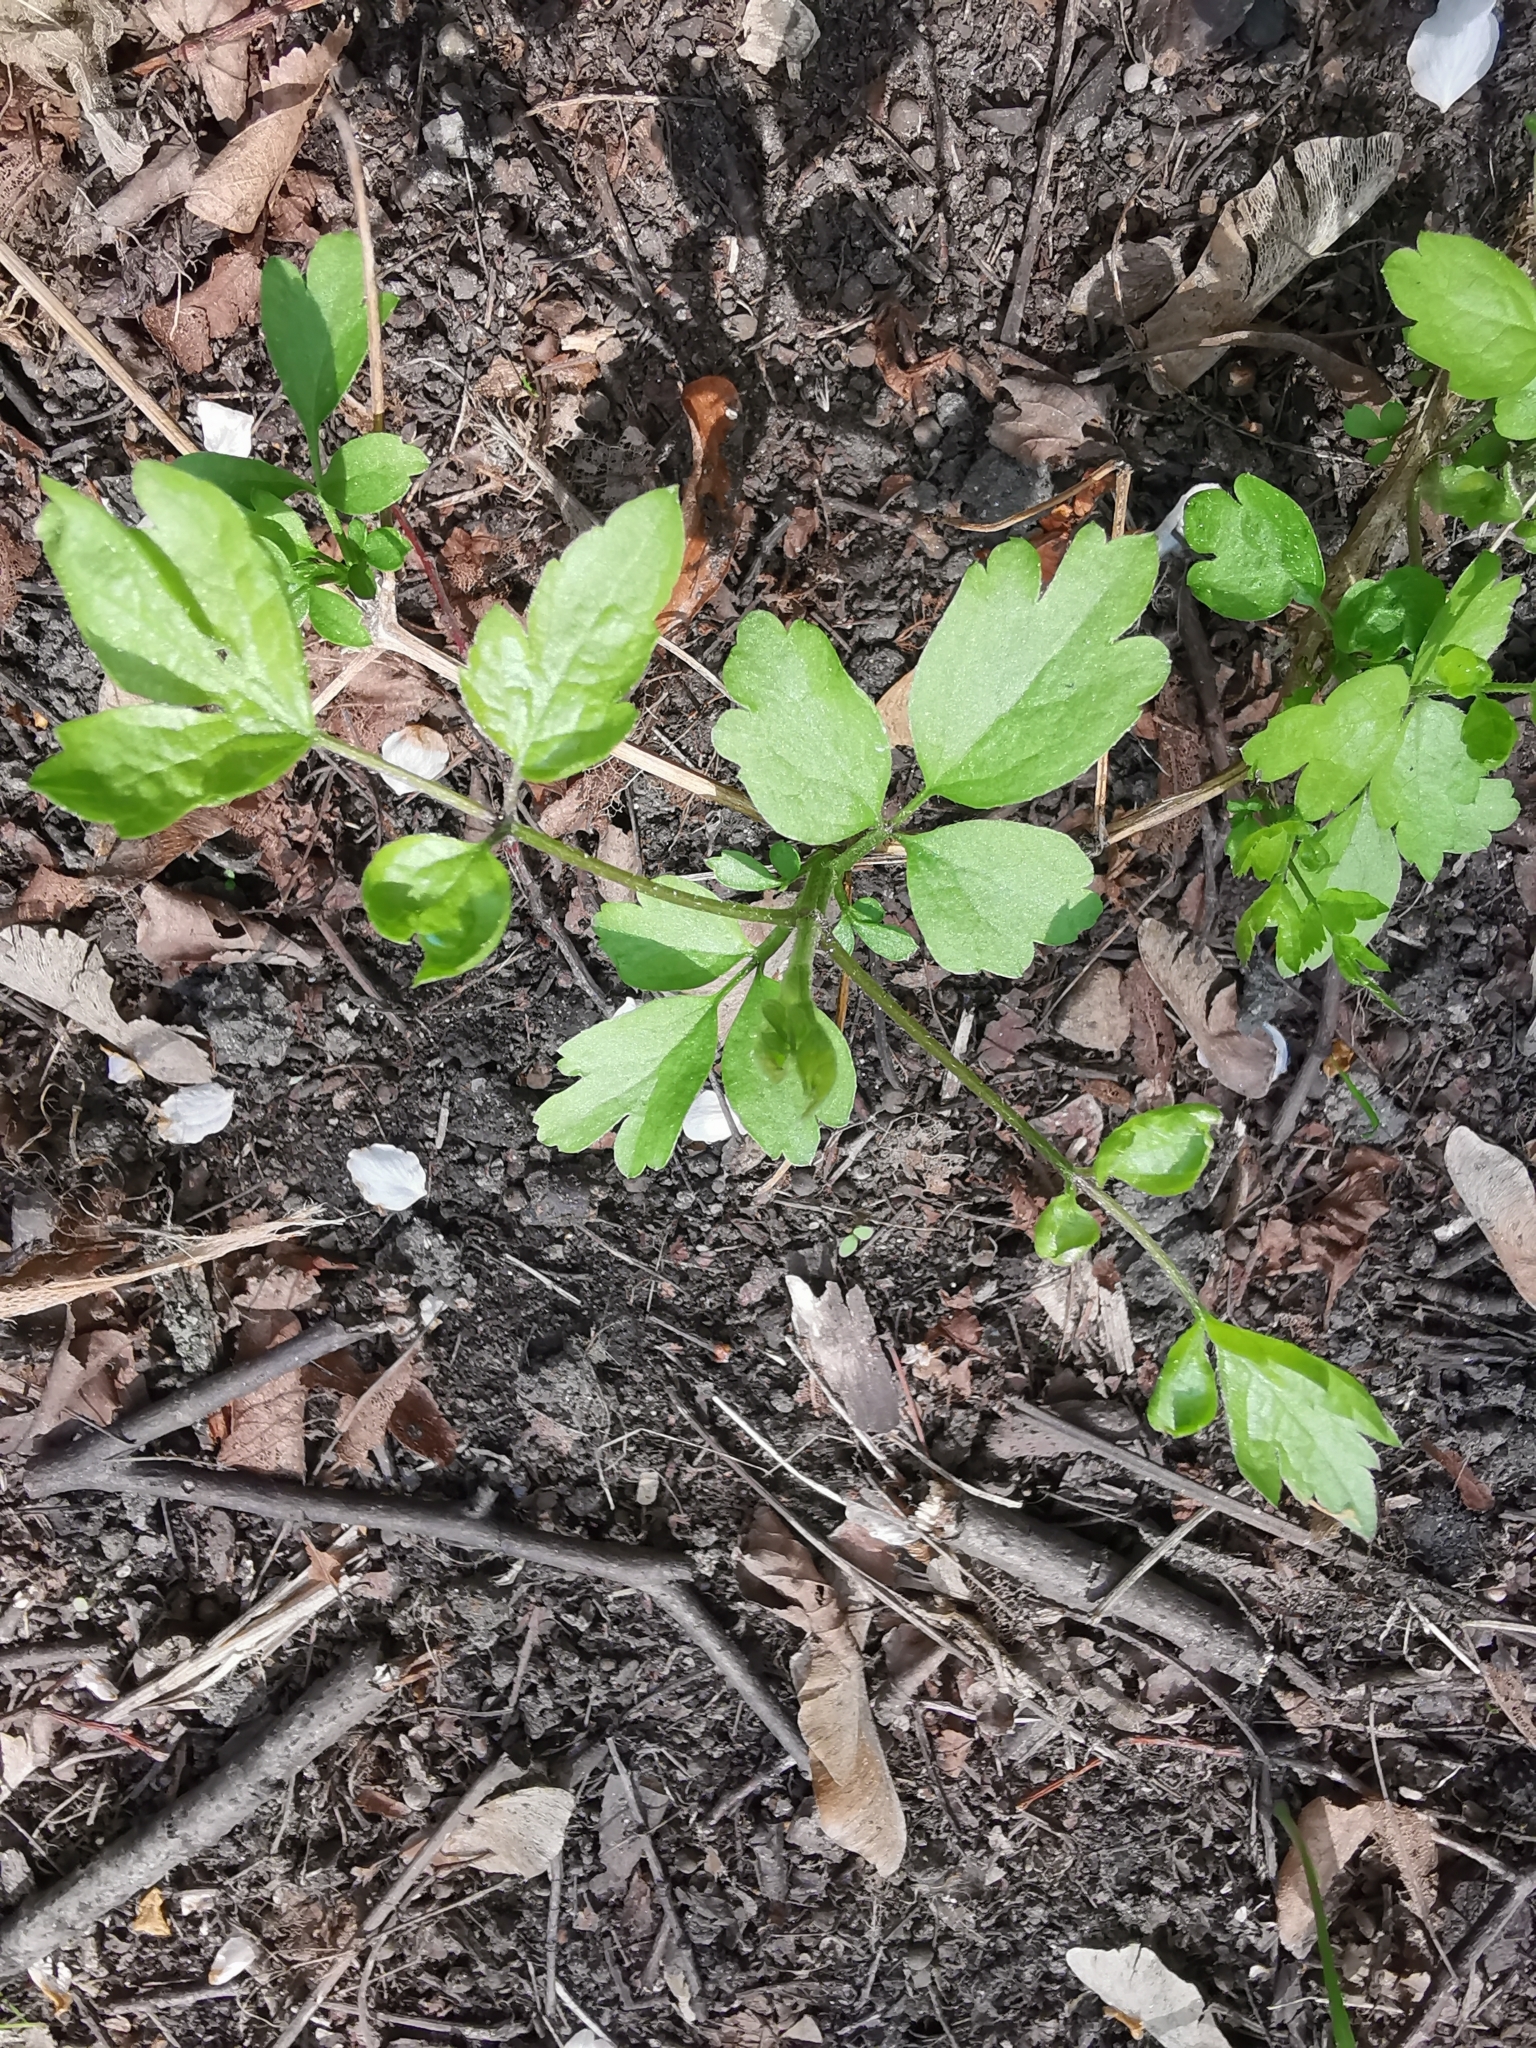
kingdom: Plantae
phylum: Tracheophyta
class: Magnoliopsida
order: Ranunculales
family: Ranunculaceae
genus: Clematis
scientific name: Clematis vitalba
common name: Evergreen clematis
